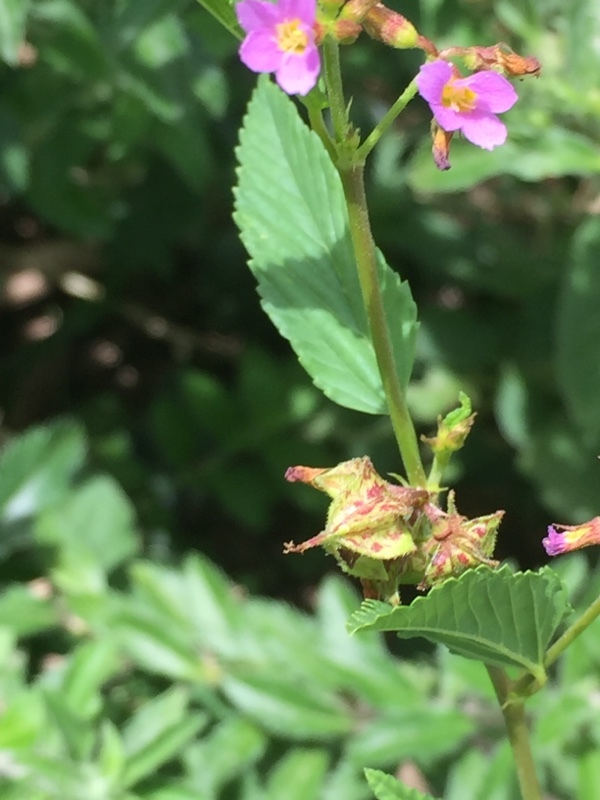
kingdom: Plantae
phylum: Tracheophyta
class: Magnoliopsida
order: Malvales
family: Malvaceae
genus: Melochia
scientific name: Melochia pyramidata
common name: Pyramidflower
